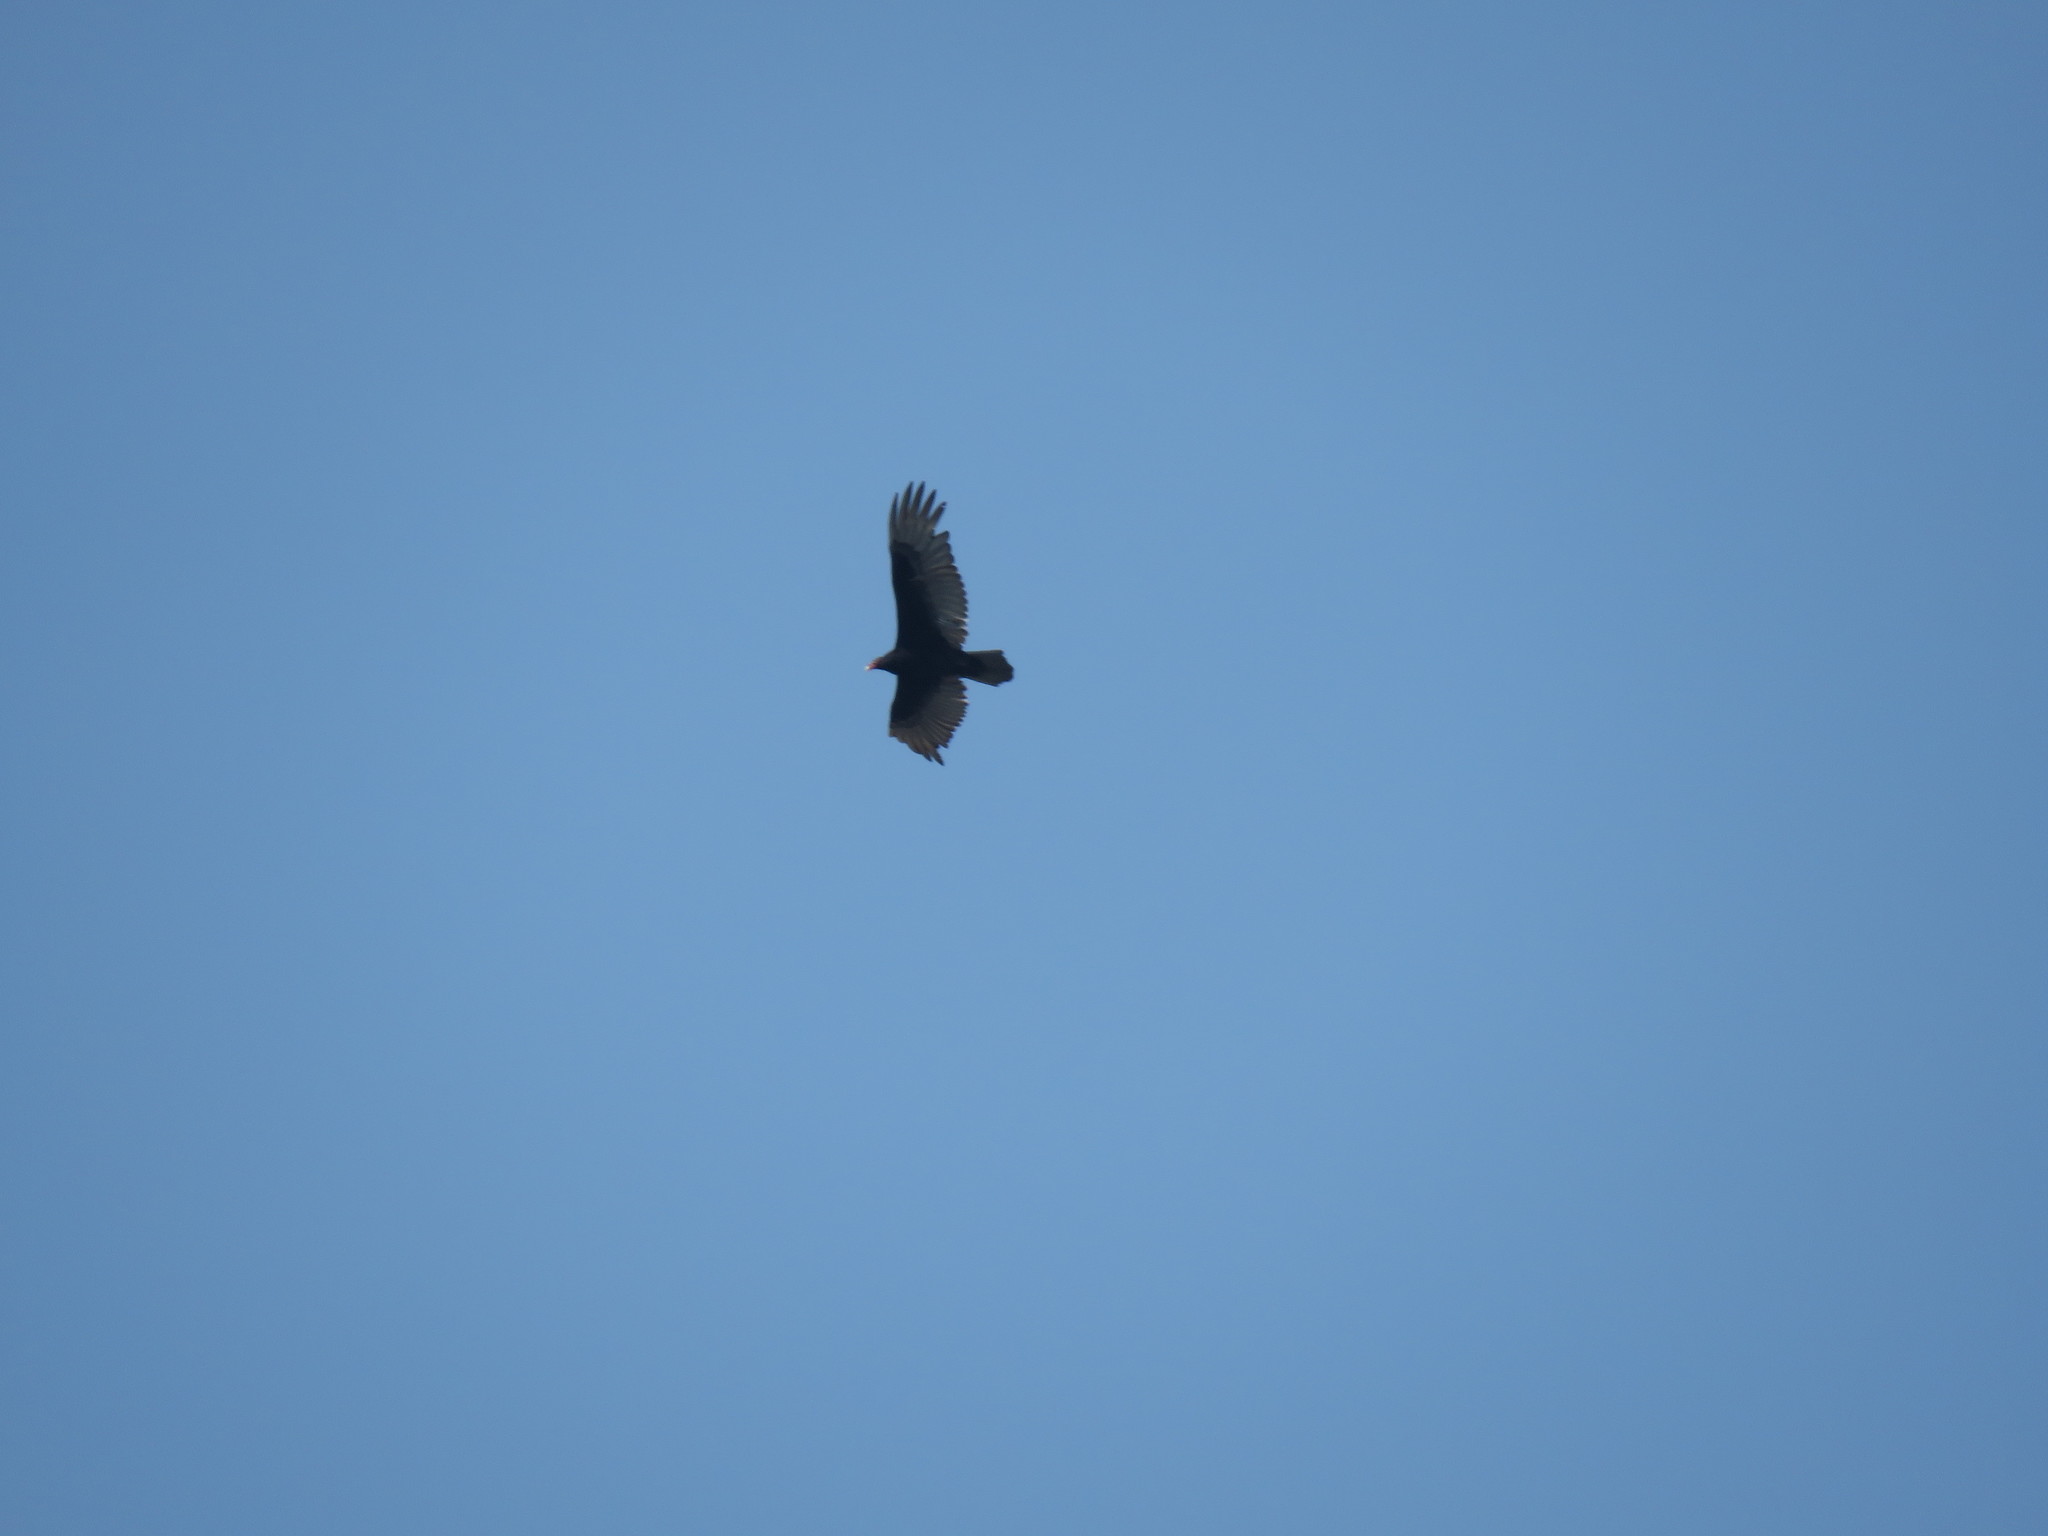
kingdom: Animalia
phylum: Chordata
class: Aves
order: Accipitriformes
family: Cathartidae
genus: Cathartes
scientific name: Cathartes aura
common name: Turkey vulture
